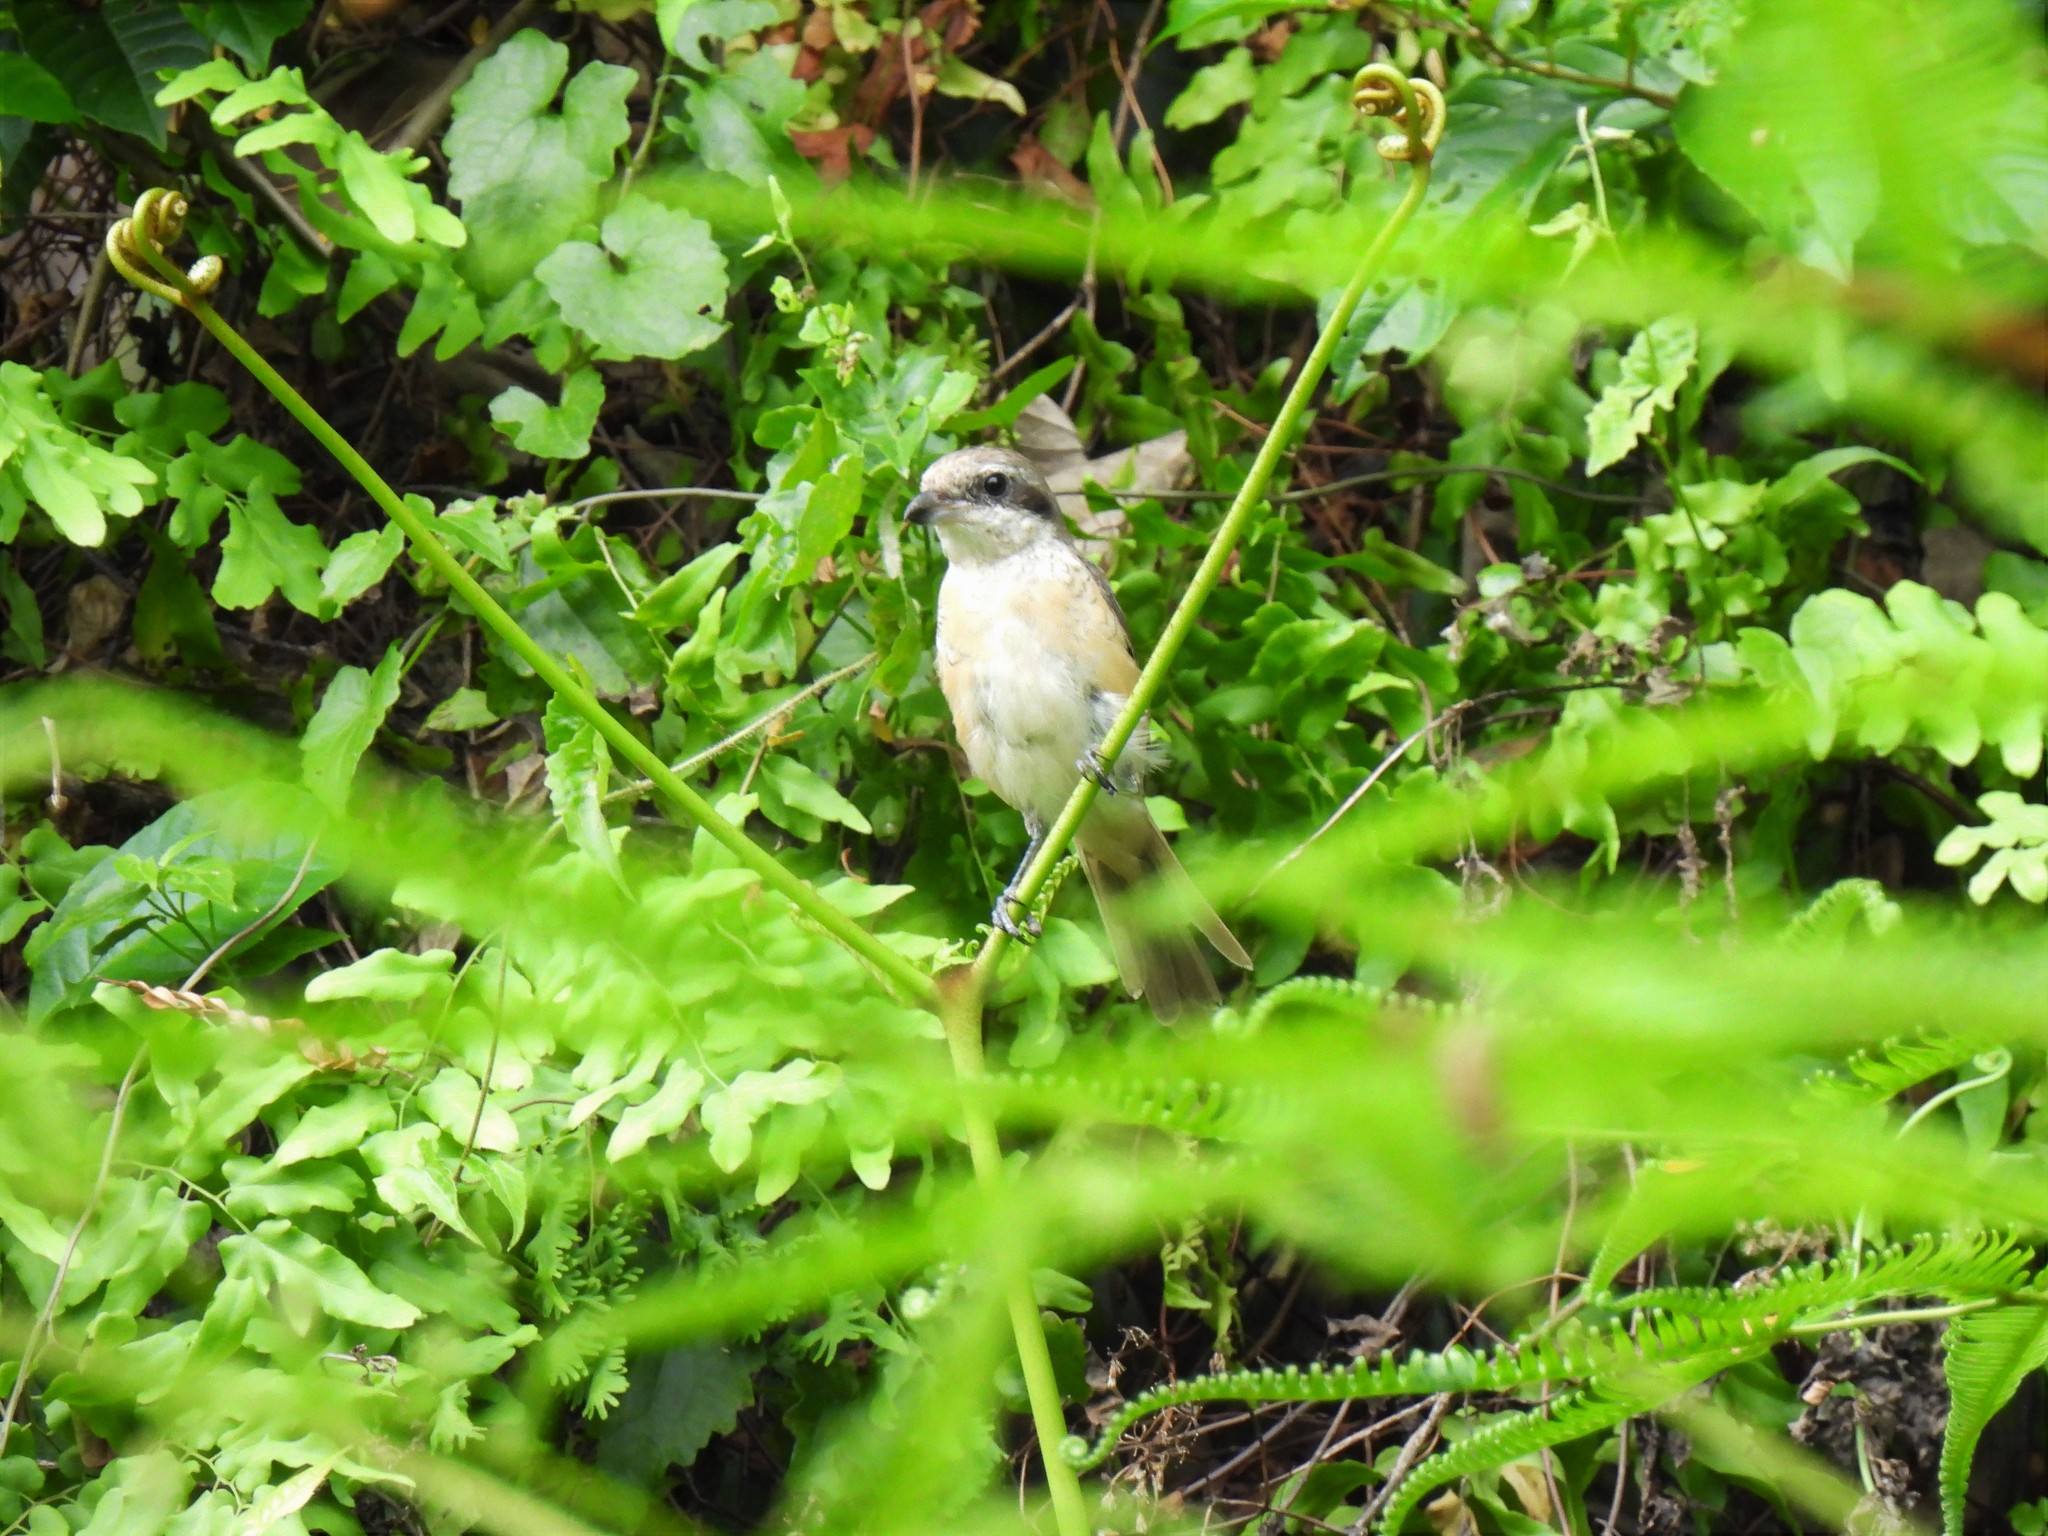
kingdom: Animalia
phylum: Chordata
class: Aves
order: Passeriformes
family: Laniidae
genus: Lanius
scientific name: Lanius cristatus
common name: Brown shrike
